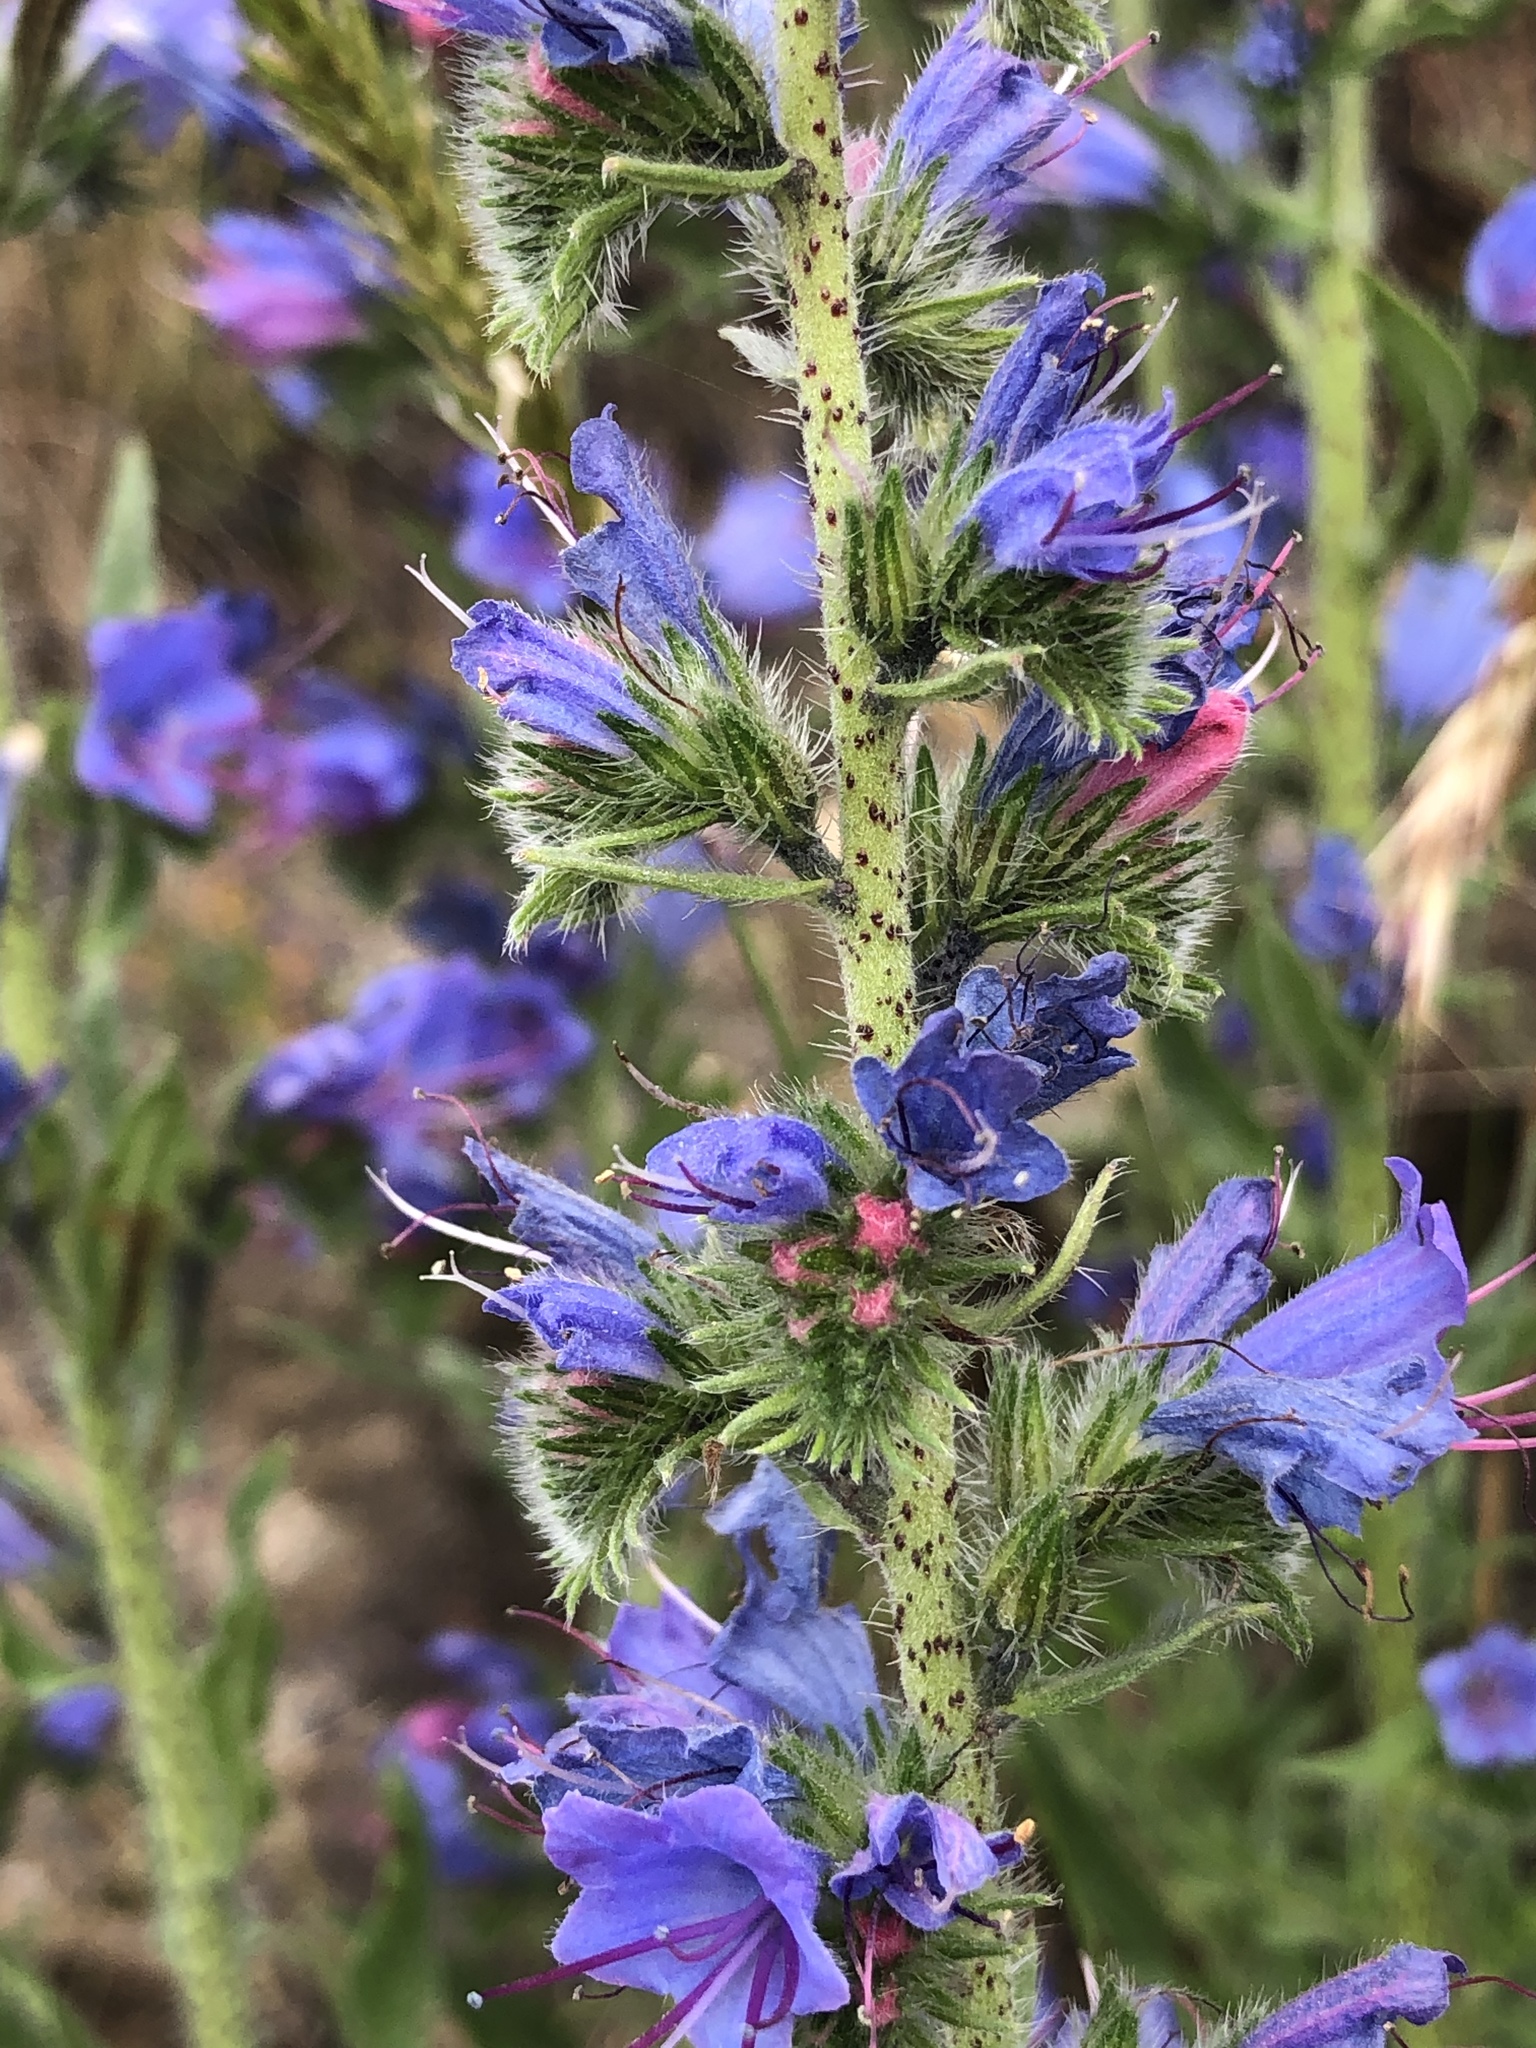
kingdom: Plantae
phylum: Tracheophyta
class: Magnoliopsida
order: Boraginales
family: Boraginaceae
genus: Echium
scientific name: Echium vulgare
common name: Common viper's bugloss
